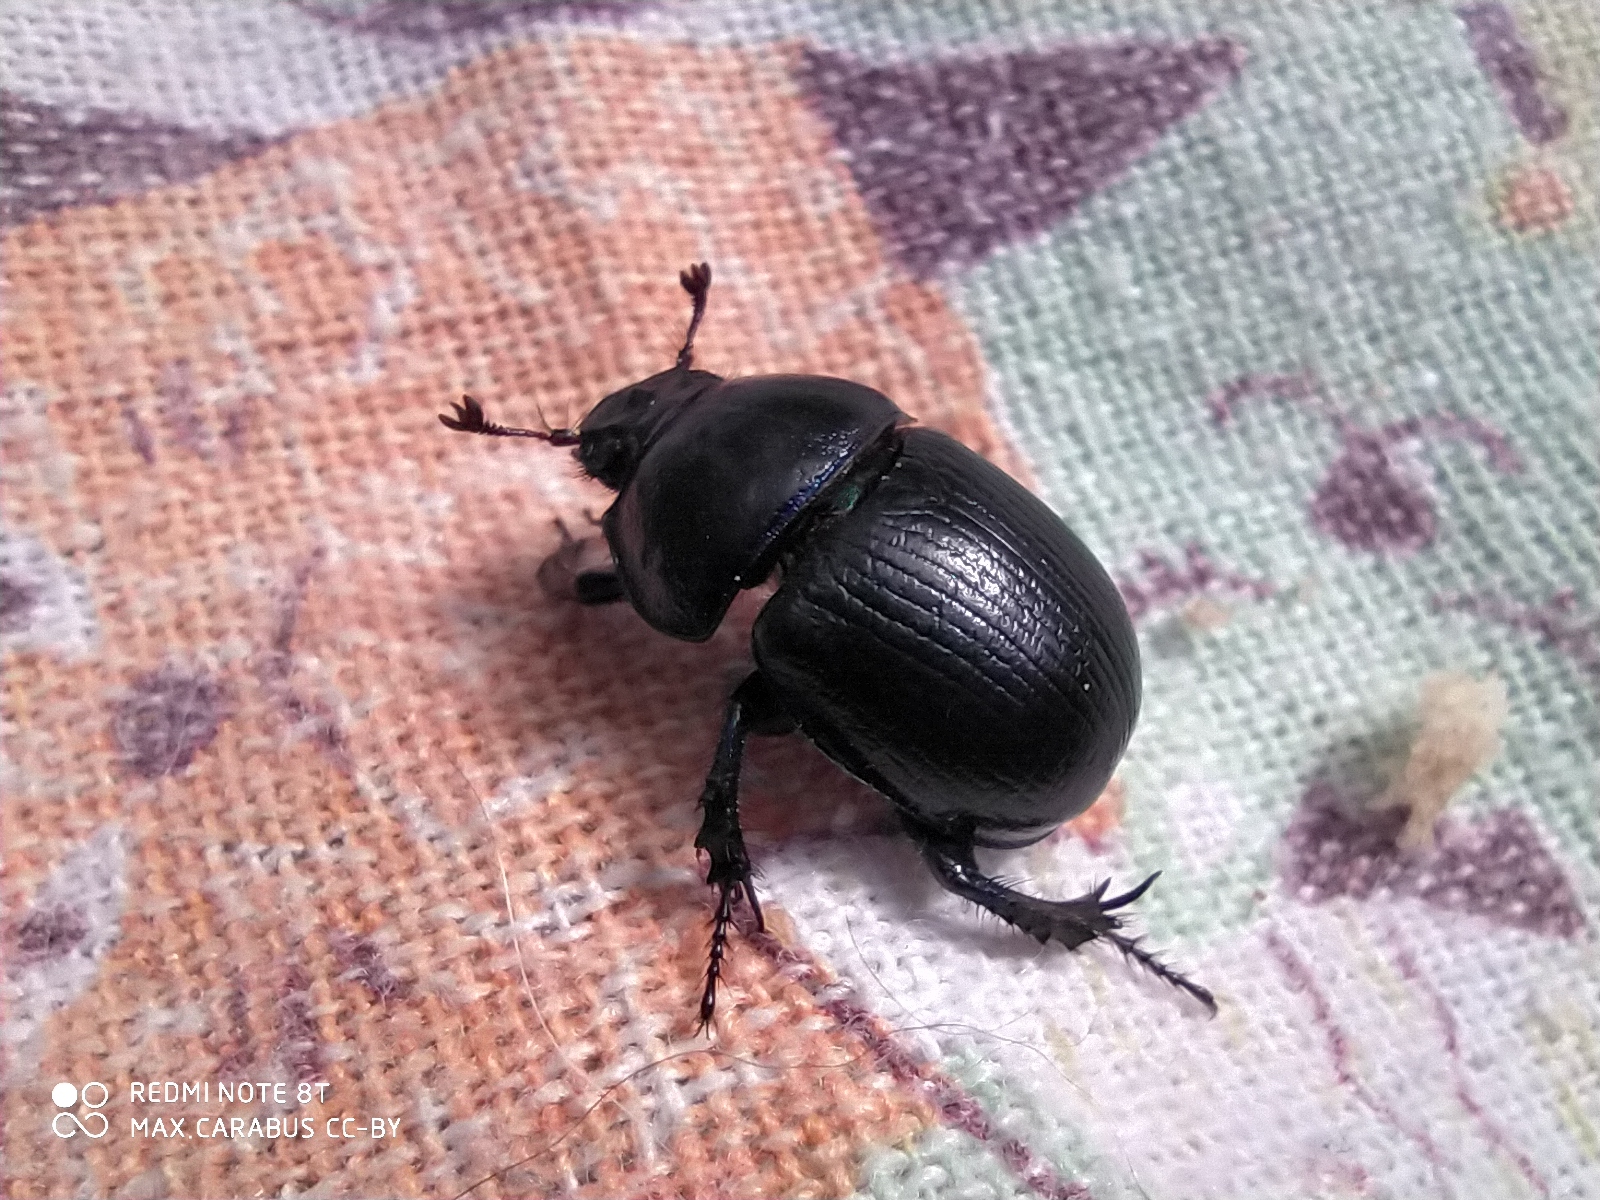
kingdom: Animalia
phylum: Arthropoda
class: Insecta
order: Coleoptera
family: Geotrupidae
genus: Anoplotrupes
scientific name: Anoplotrupes stercorosus
